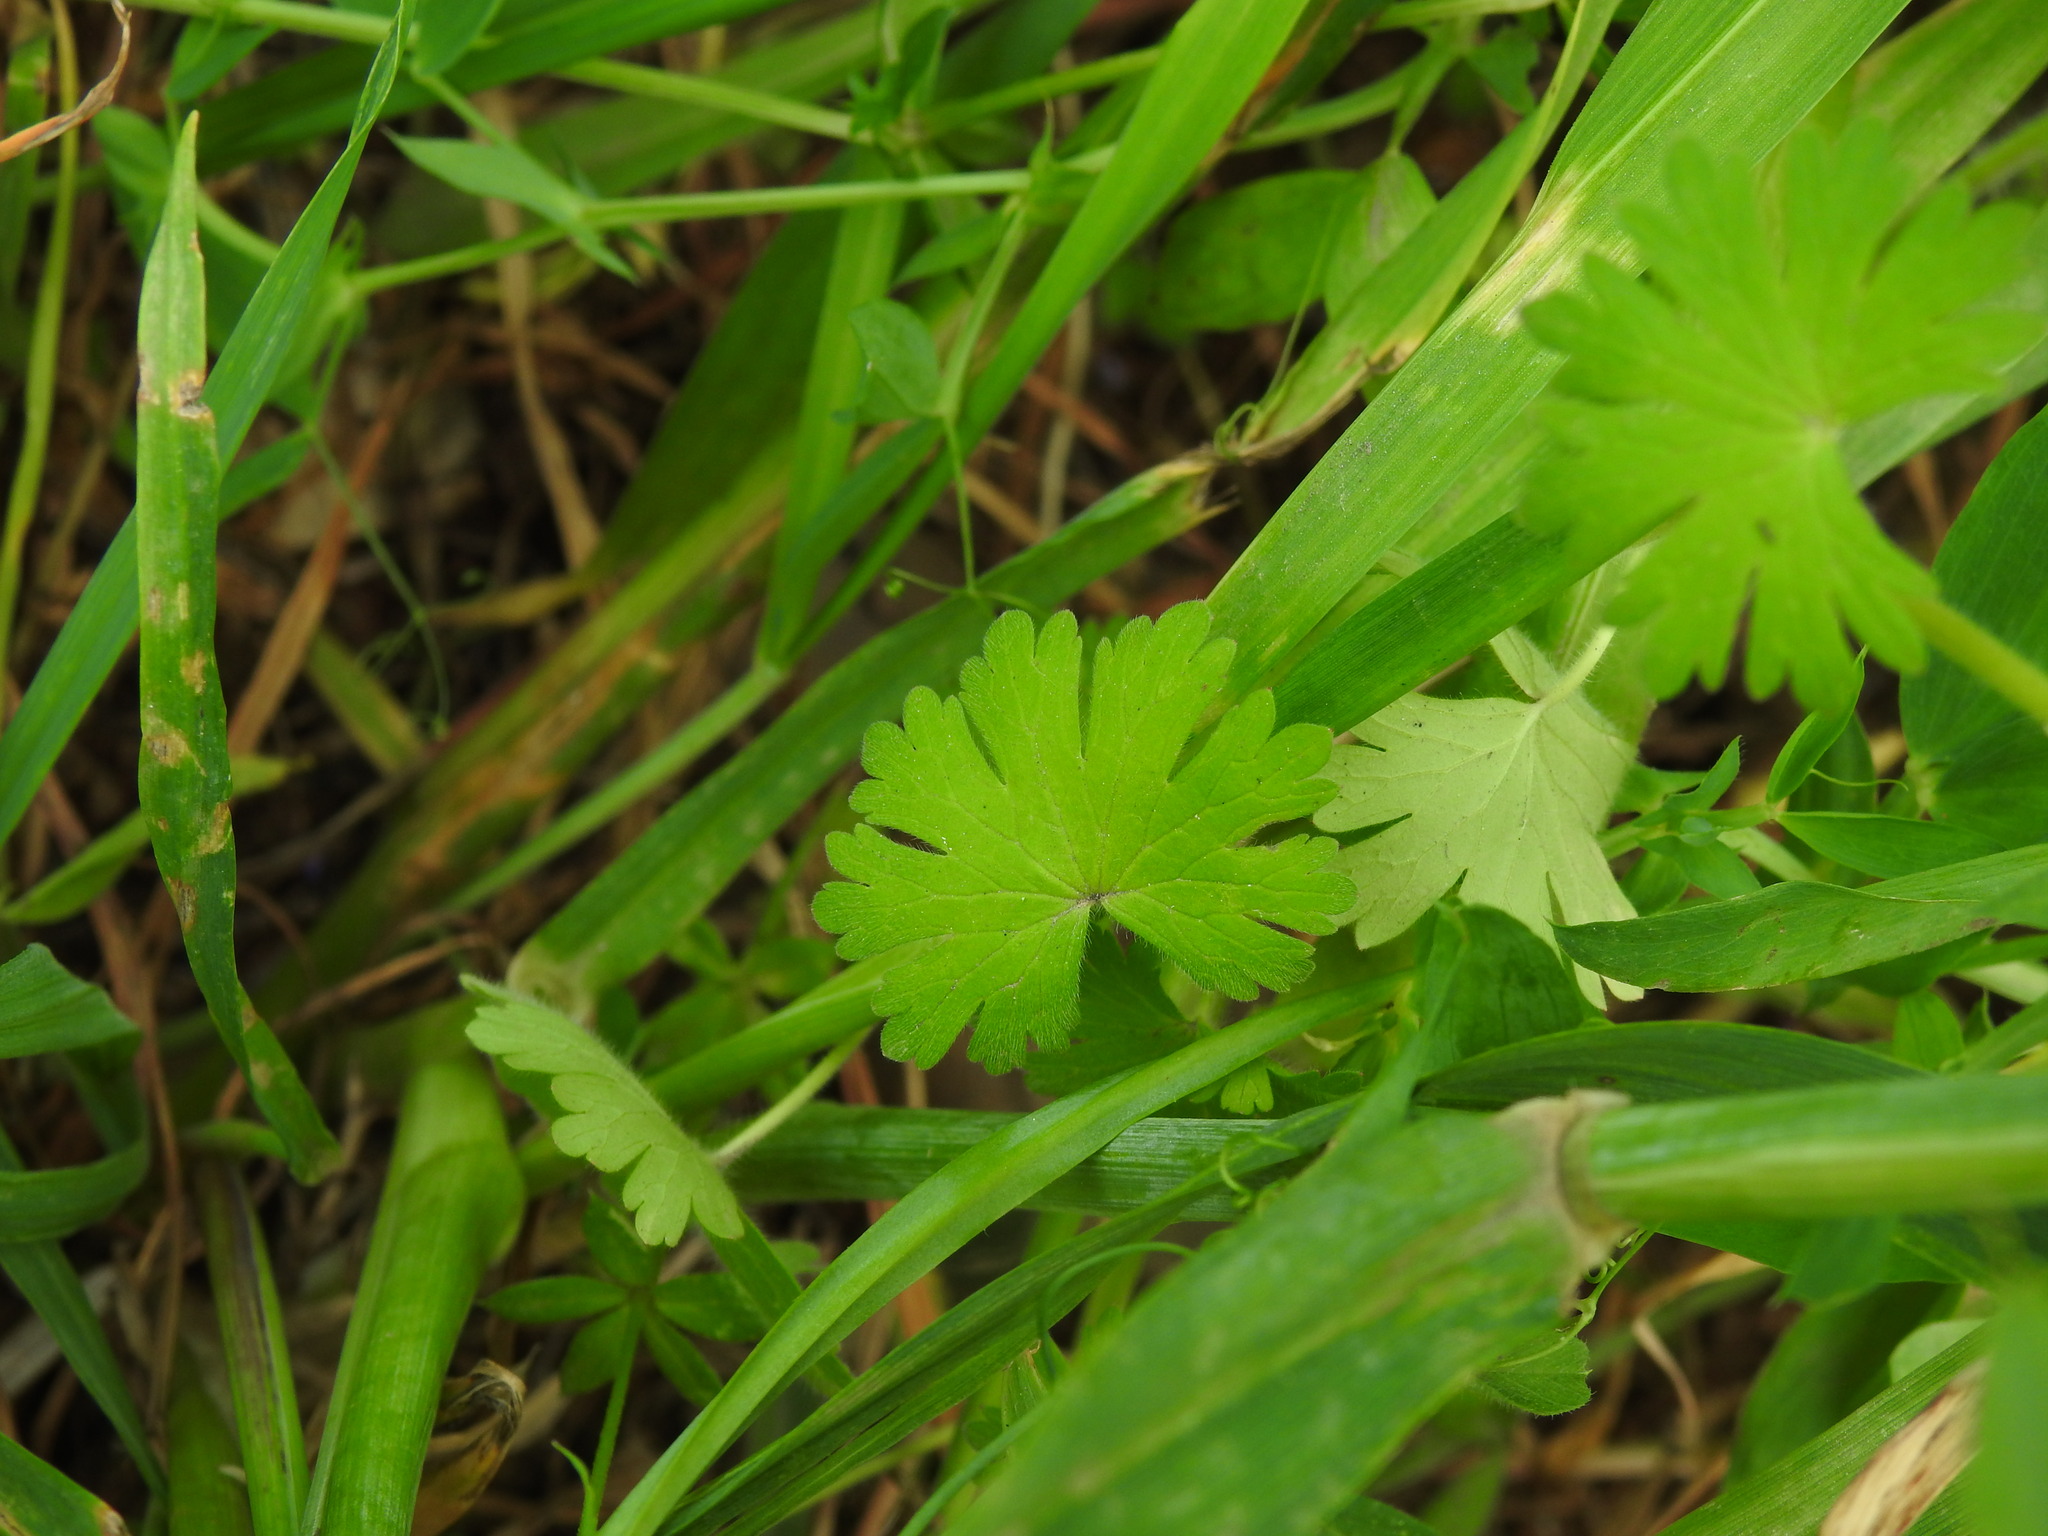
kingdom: Plantae
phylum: Tracheophyta
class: Magnoliopsida
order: Geraniales
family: Geraniaceae
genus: Geranium
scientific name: Geranium molle
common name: Dove's-foot crane's-bill
